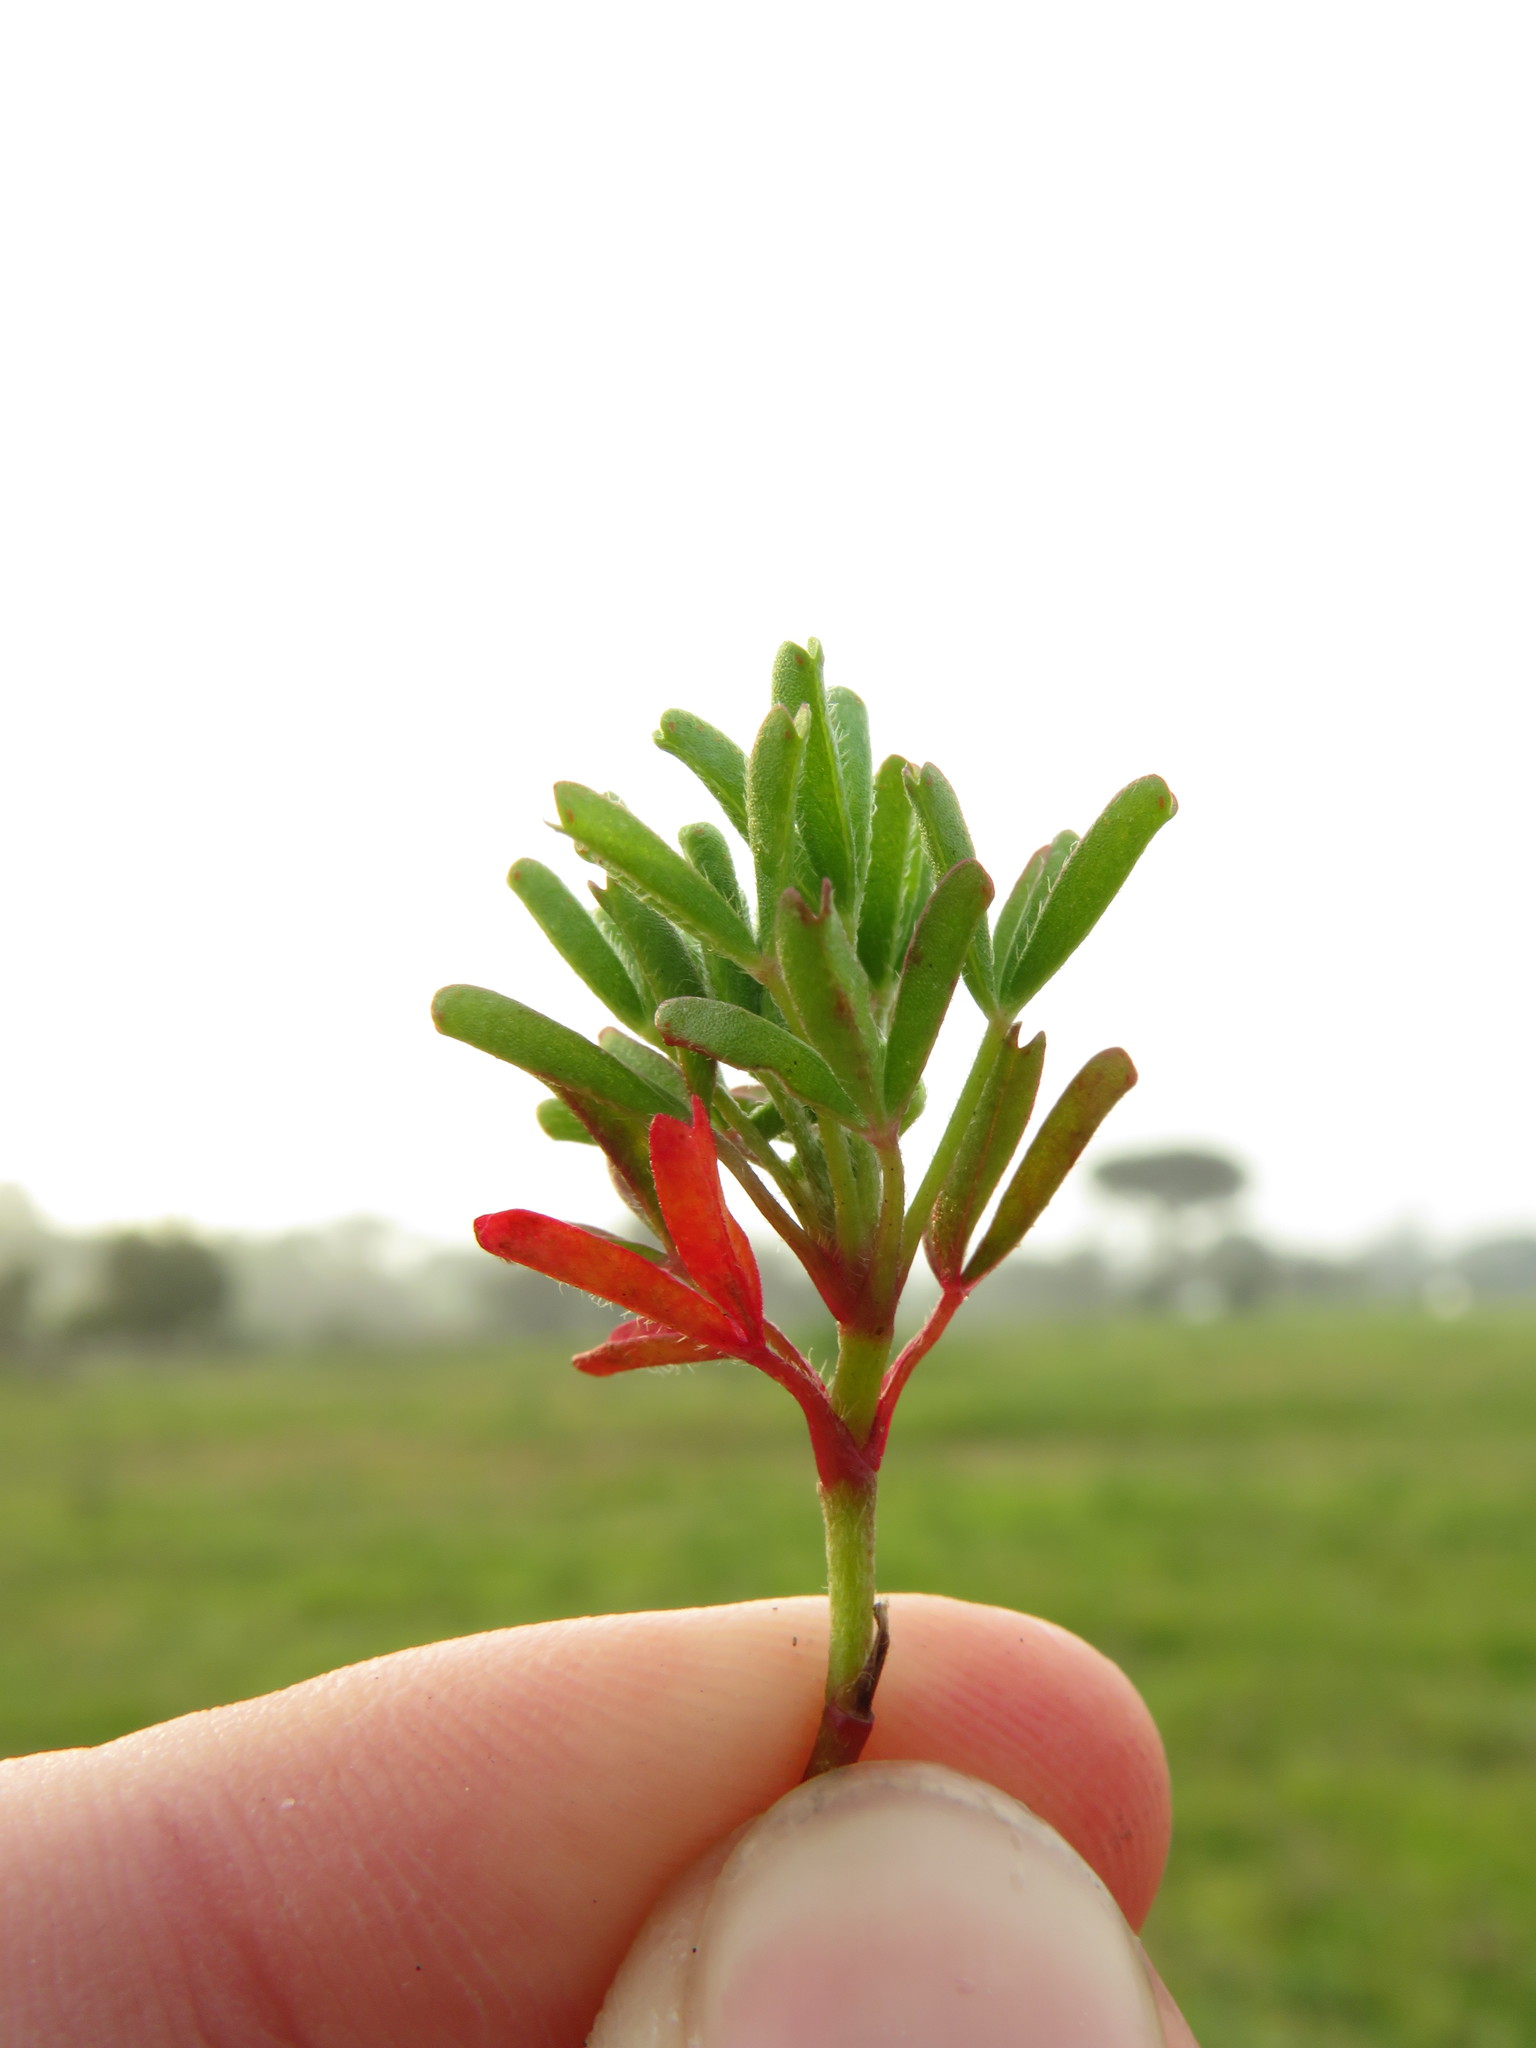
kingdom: Plantae
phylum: Tracheophyta
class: Magnoliopsida
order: Oxalidales
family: Oxalidaceae
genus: Oxalis
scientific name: Oxalis glabra
